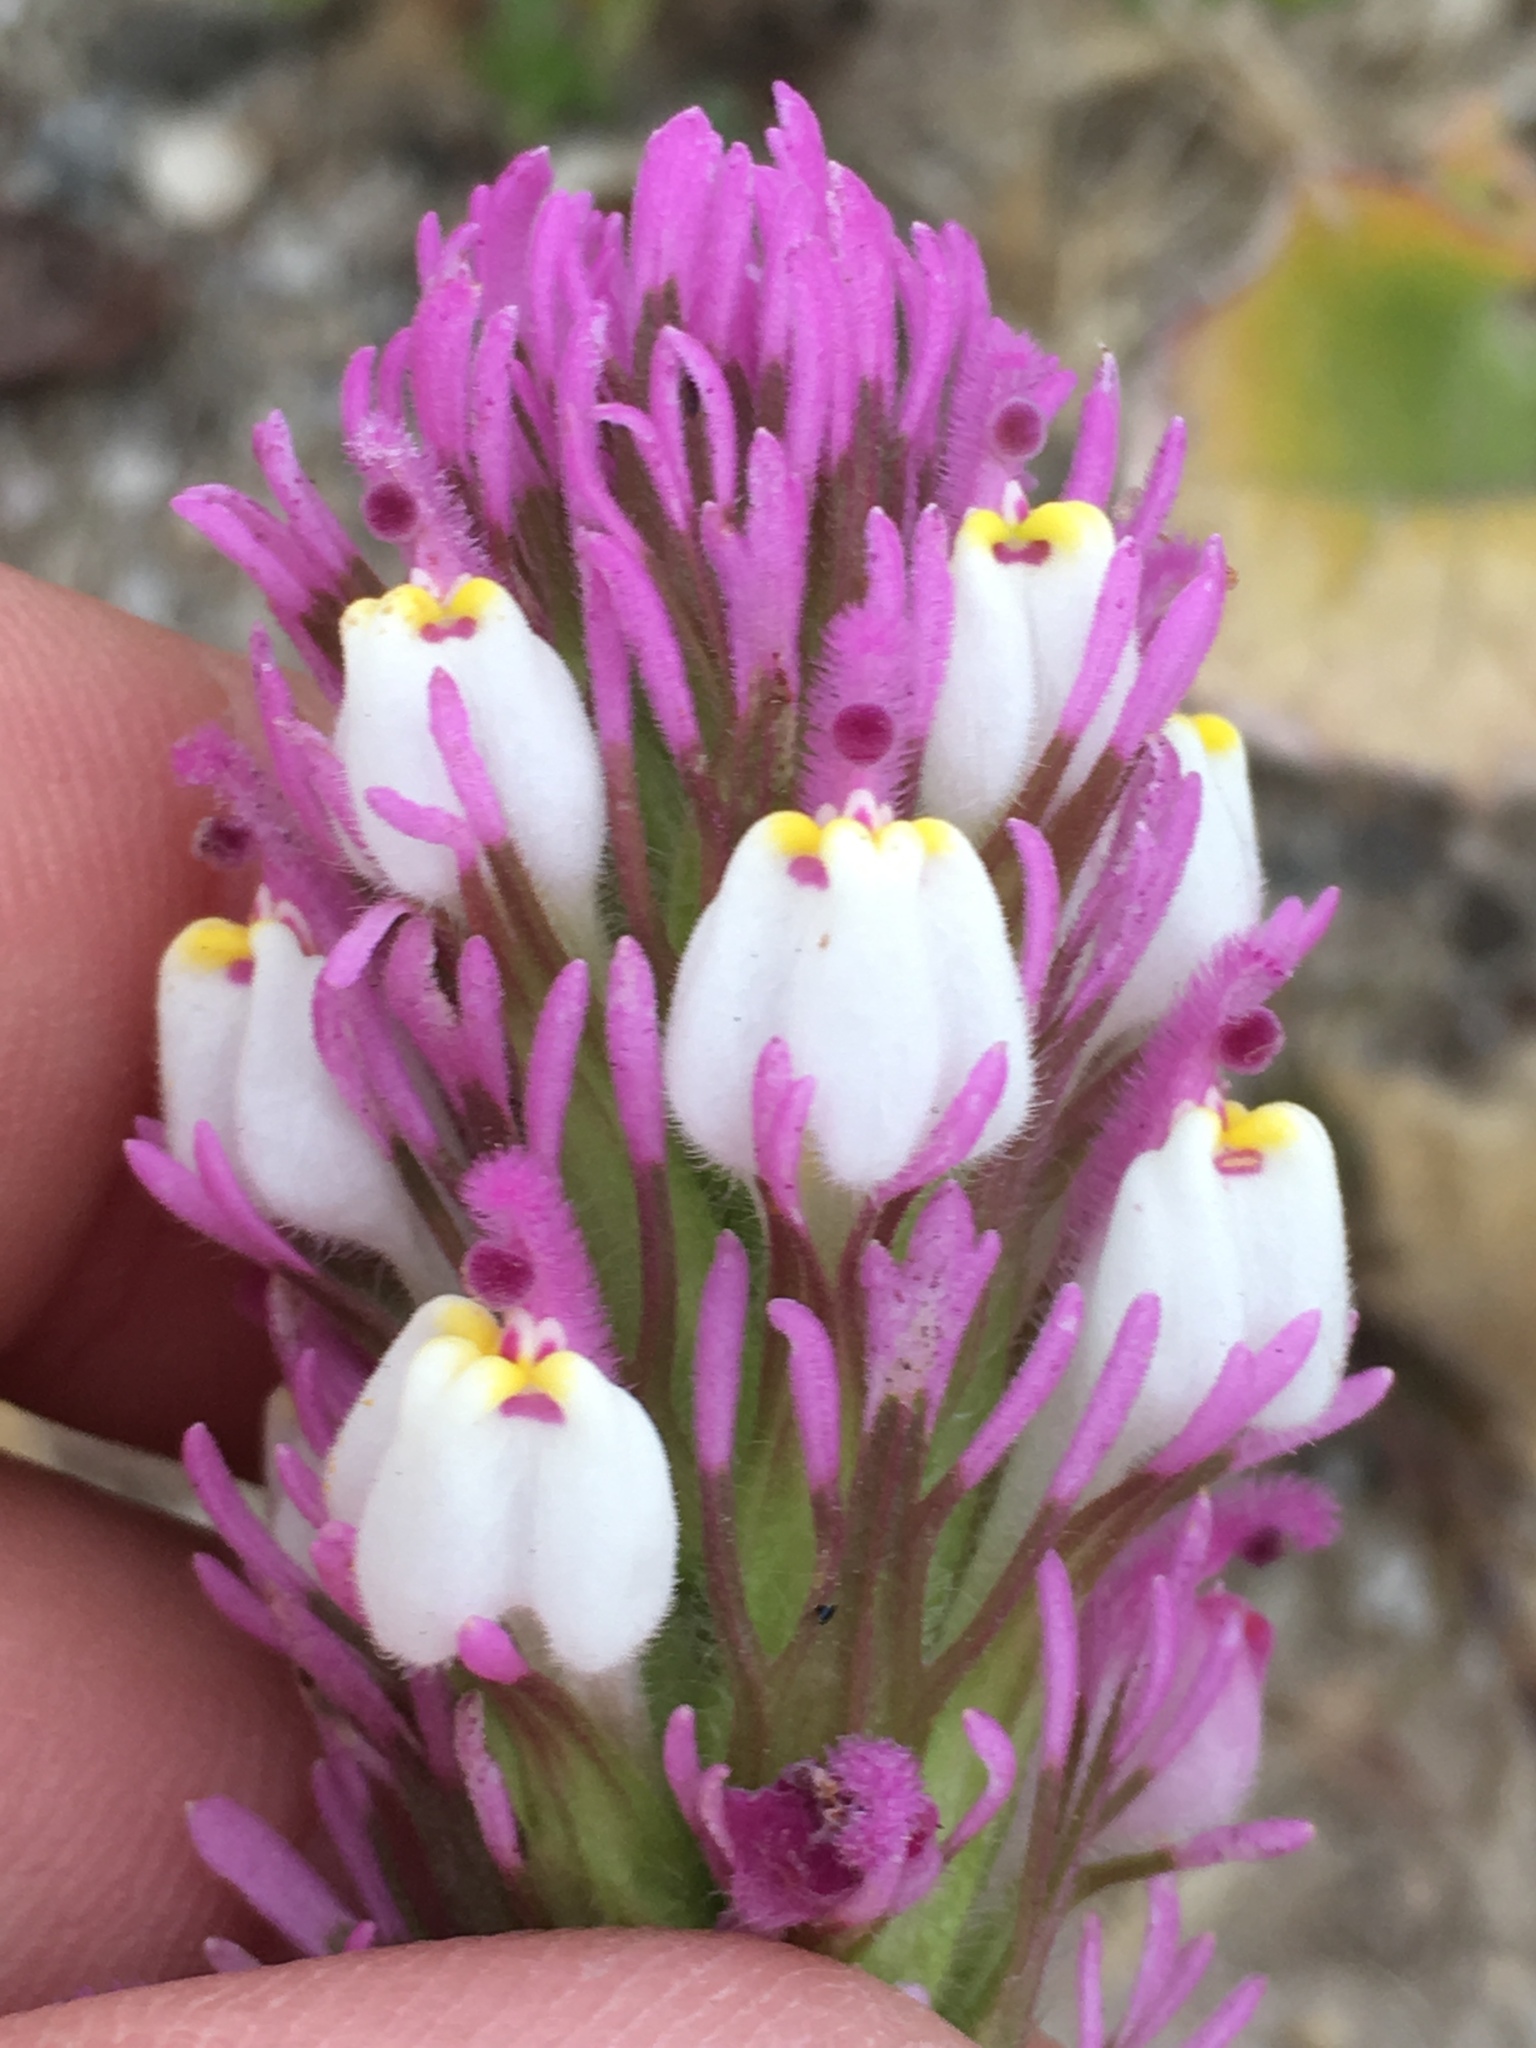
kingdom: Plantae
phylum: Tracheophyta
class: Magnoliopsida
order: Lamiales
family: Orobanchaceae
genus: Castilleja
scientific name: Castilleja exserta
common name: Purple owl-clover
